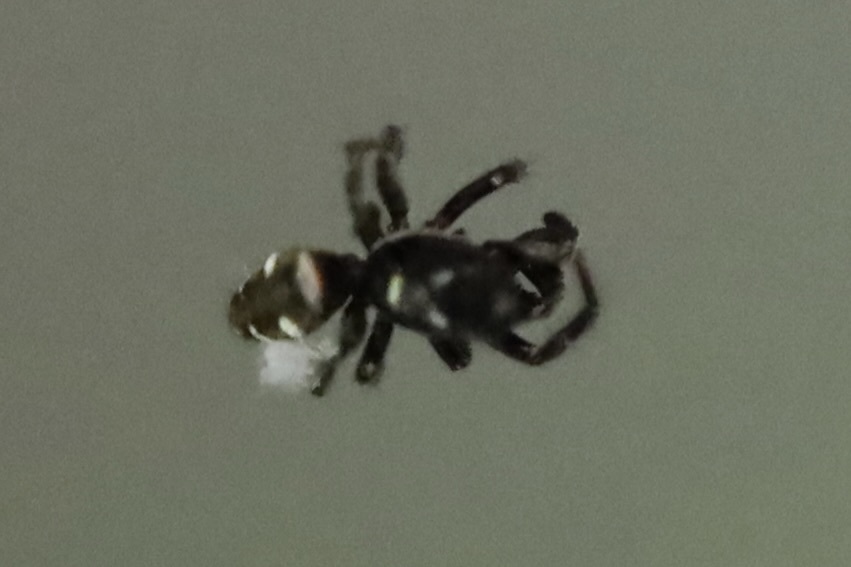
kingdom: Animalia
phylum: Arthropoda
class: Arachnida
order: Araneae
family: Salticidae
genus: Salticus
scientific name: Salticus scenicus
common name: Zebra jumper
